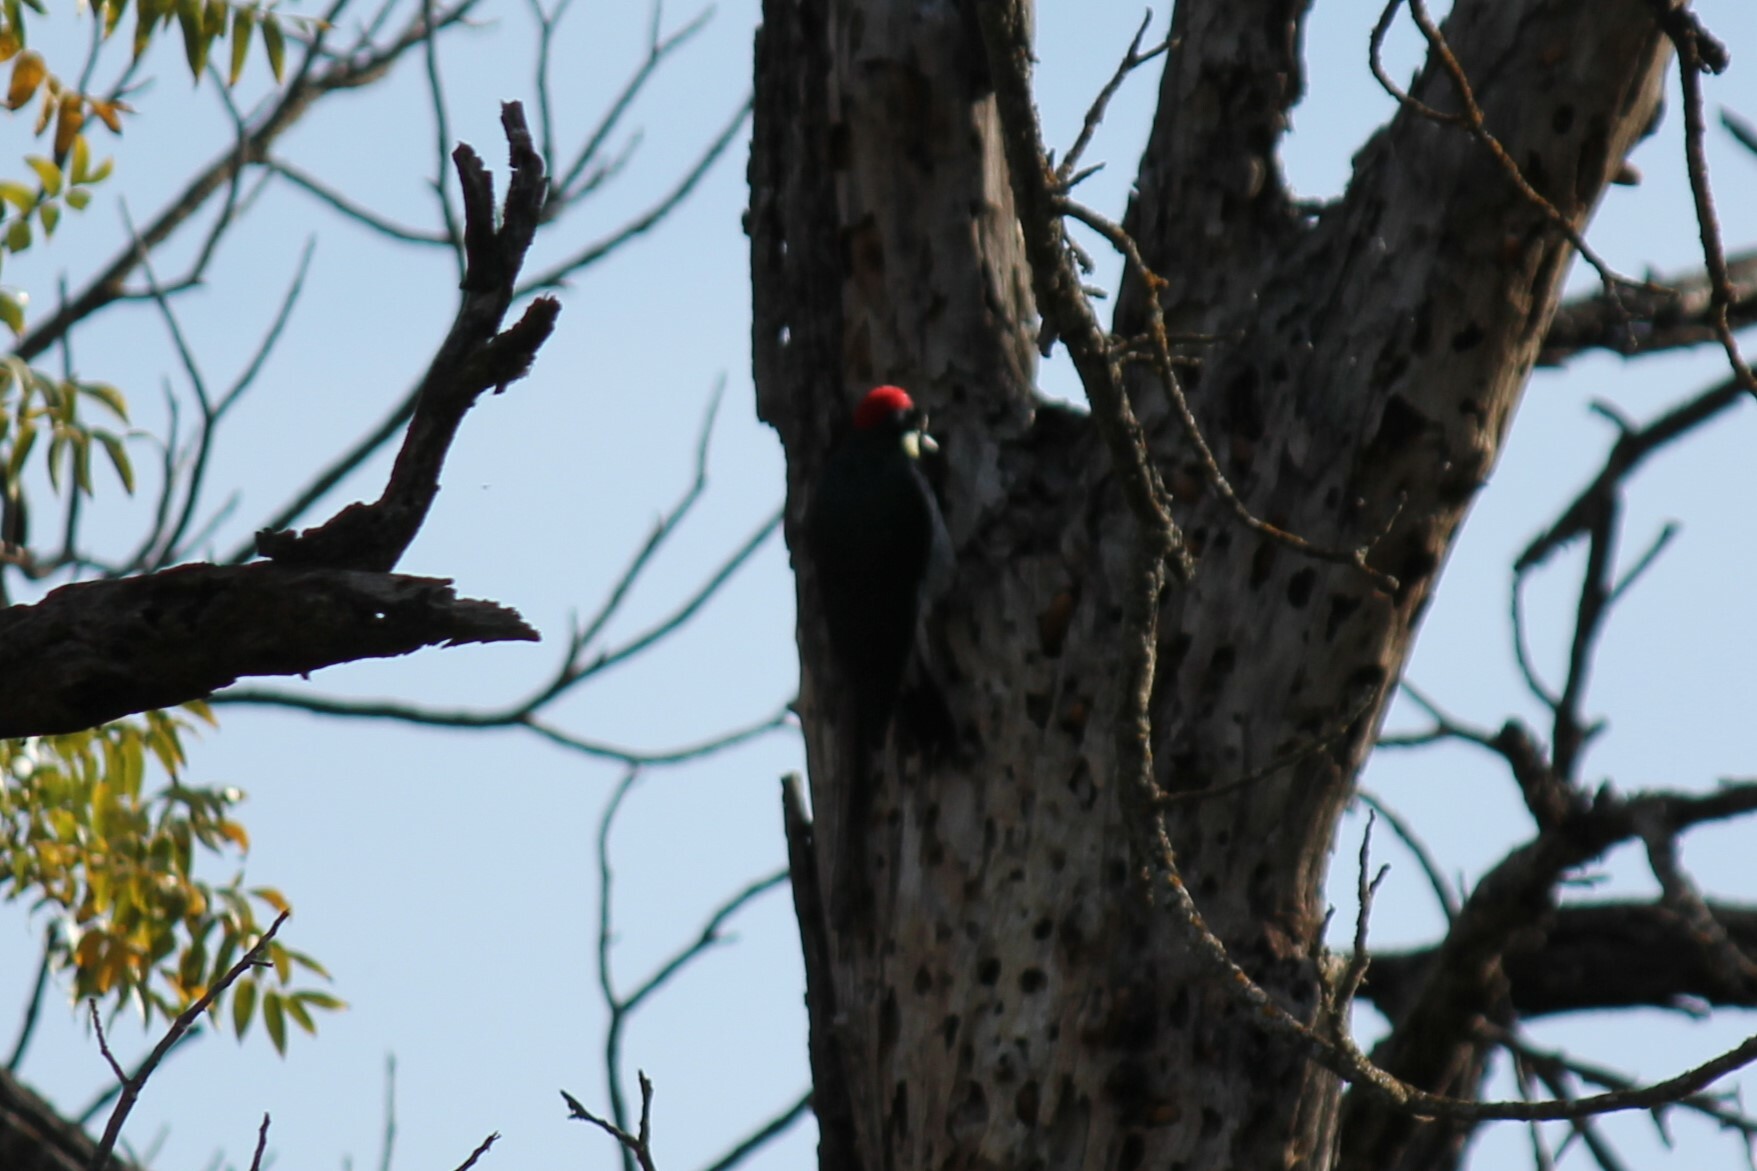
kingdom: Animalia
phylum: Chordata
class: Aves
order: Piciformes
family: Picidae
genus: Melanerpes
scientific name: Melanerpes formicivorus
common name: Acorn woodpecker
